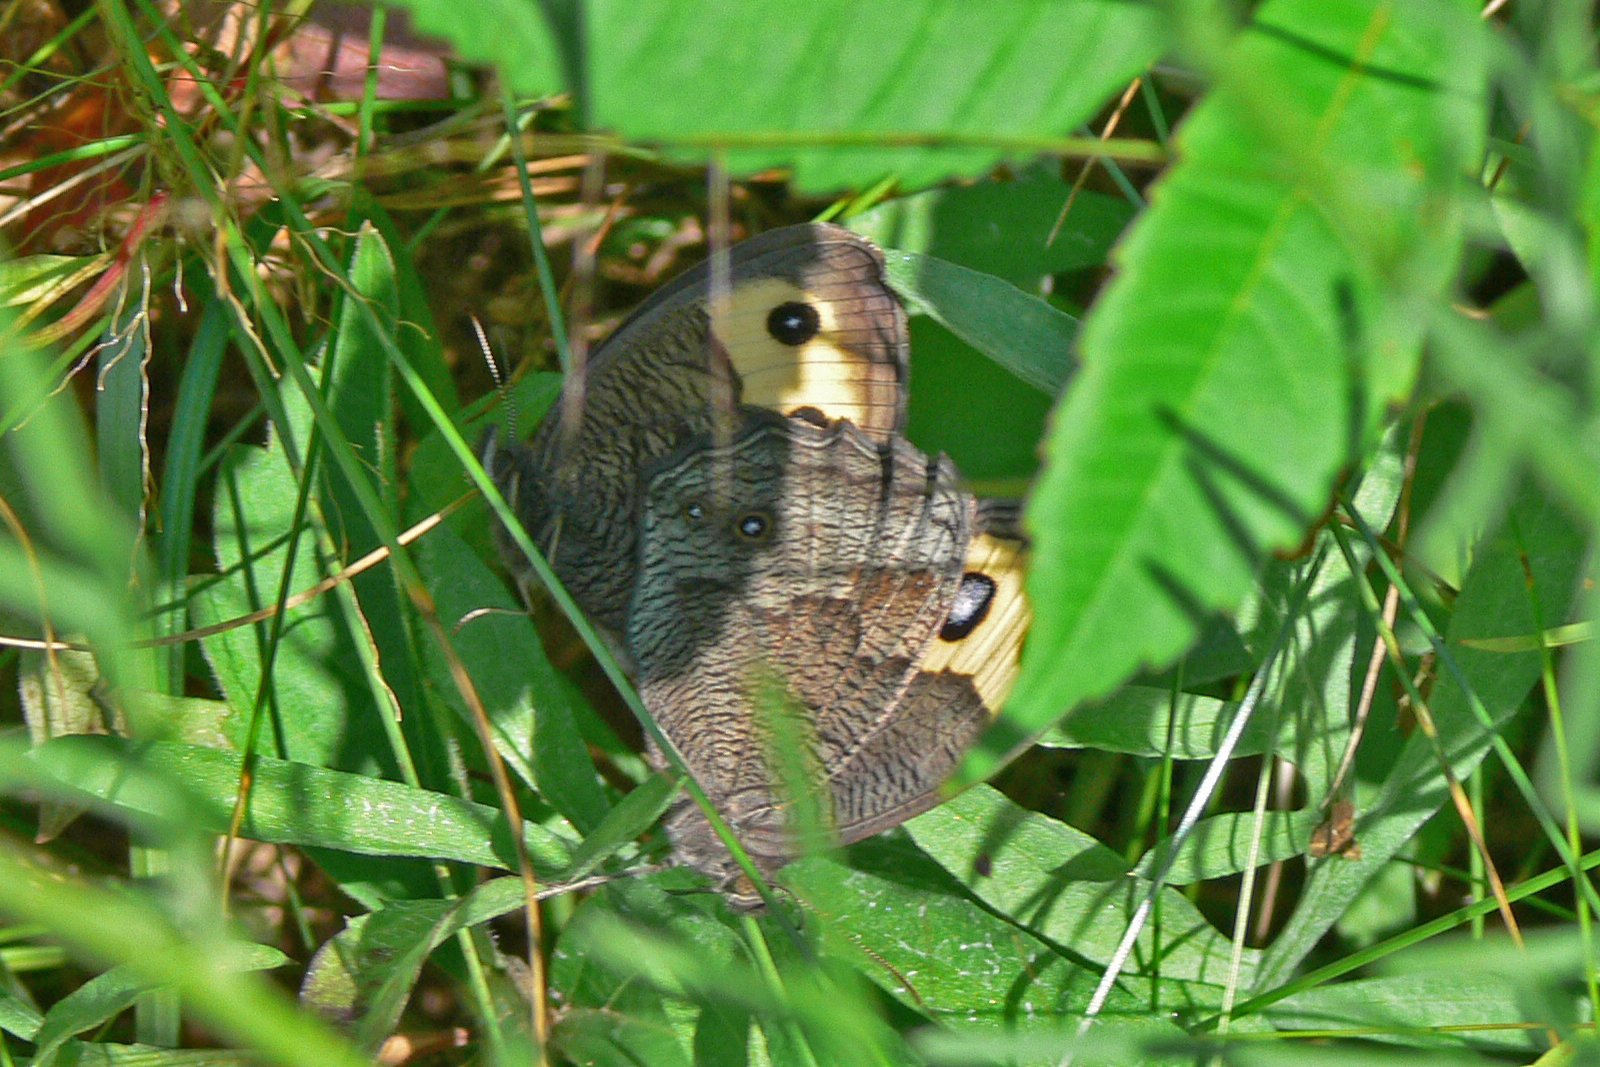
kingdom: Animalia
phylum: Arthropoda
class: Insecta
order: Lepidoptera
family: Nymphalidae
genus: Cercyonis
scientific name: Cercyonis pegala
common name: Common wood-nymph
